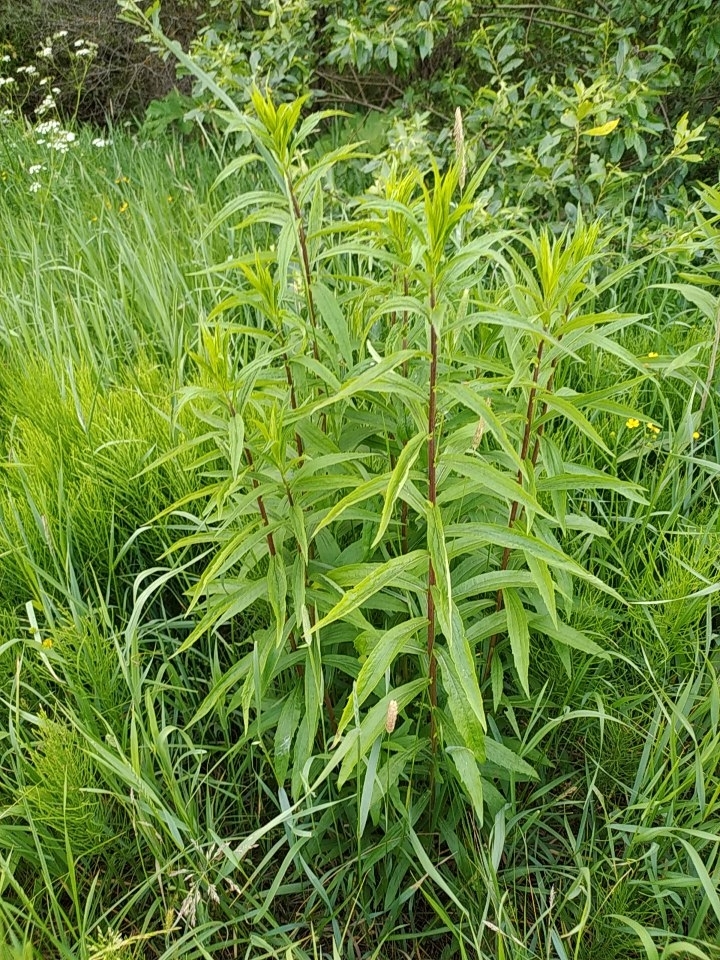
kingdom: Plantae
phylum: Tracheophyta
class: Magnoliopsida
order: Asterales
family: Asteraceae
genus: Solidago
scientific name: Solidago canadensis
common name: Canada goldenrod
